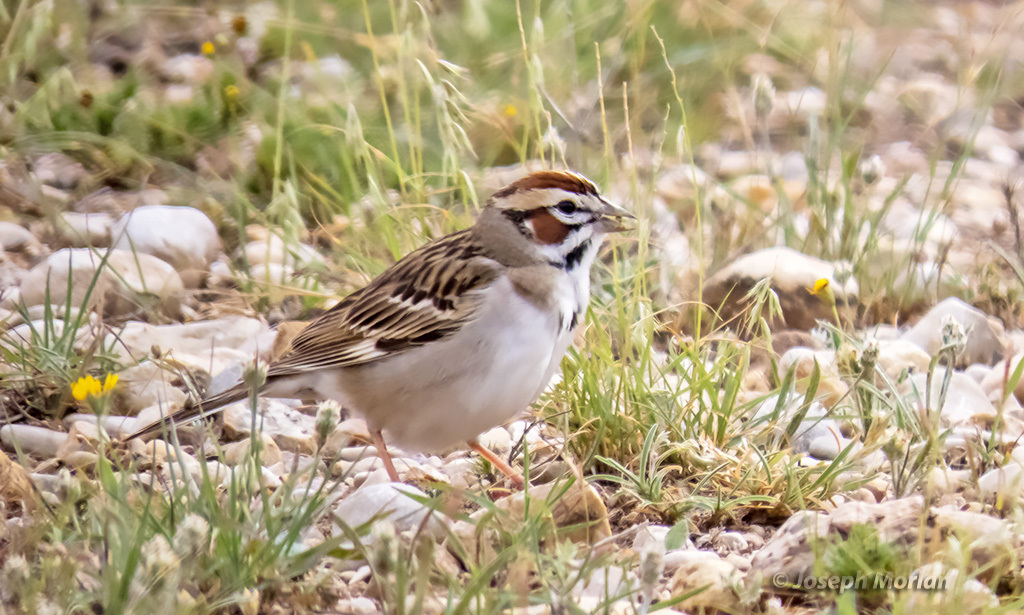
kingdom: Animalia
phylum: Chordata
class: Aves
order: Passeriformes
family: Passerellidae
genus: Chondestes
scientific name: Chondestes grammacus
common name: Lark sparrow
